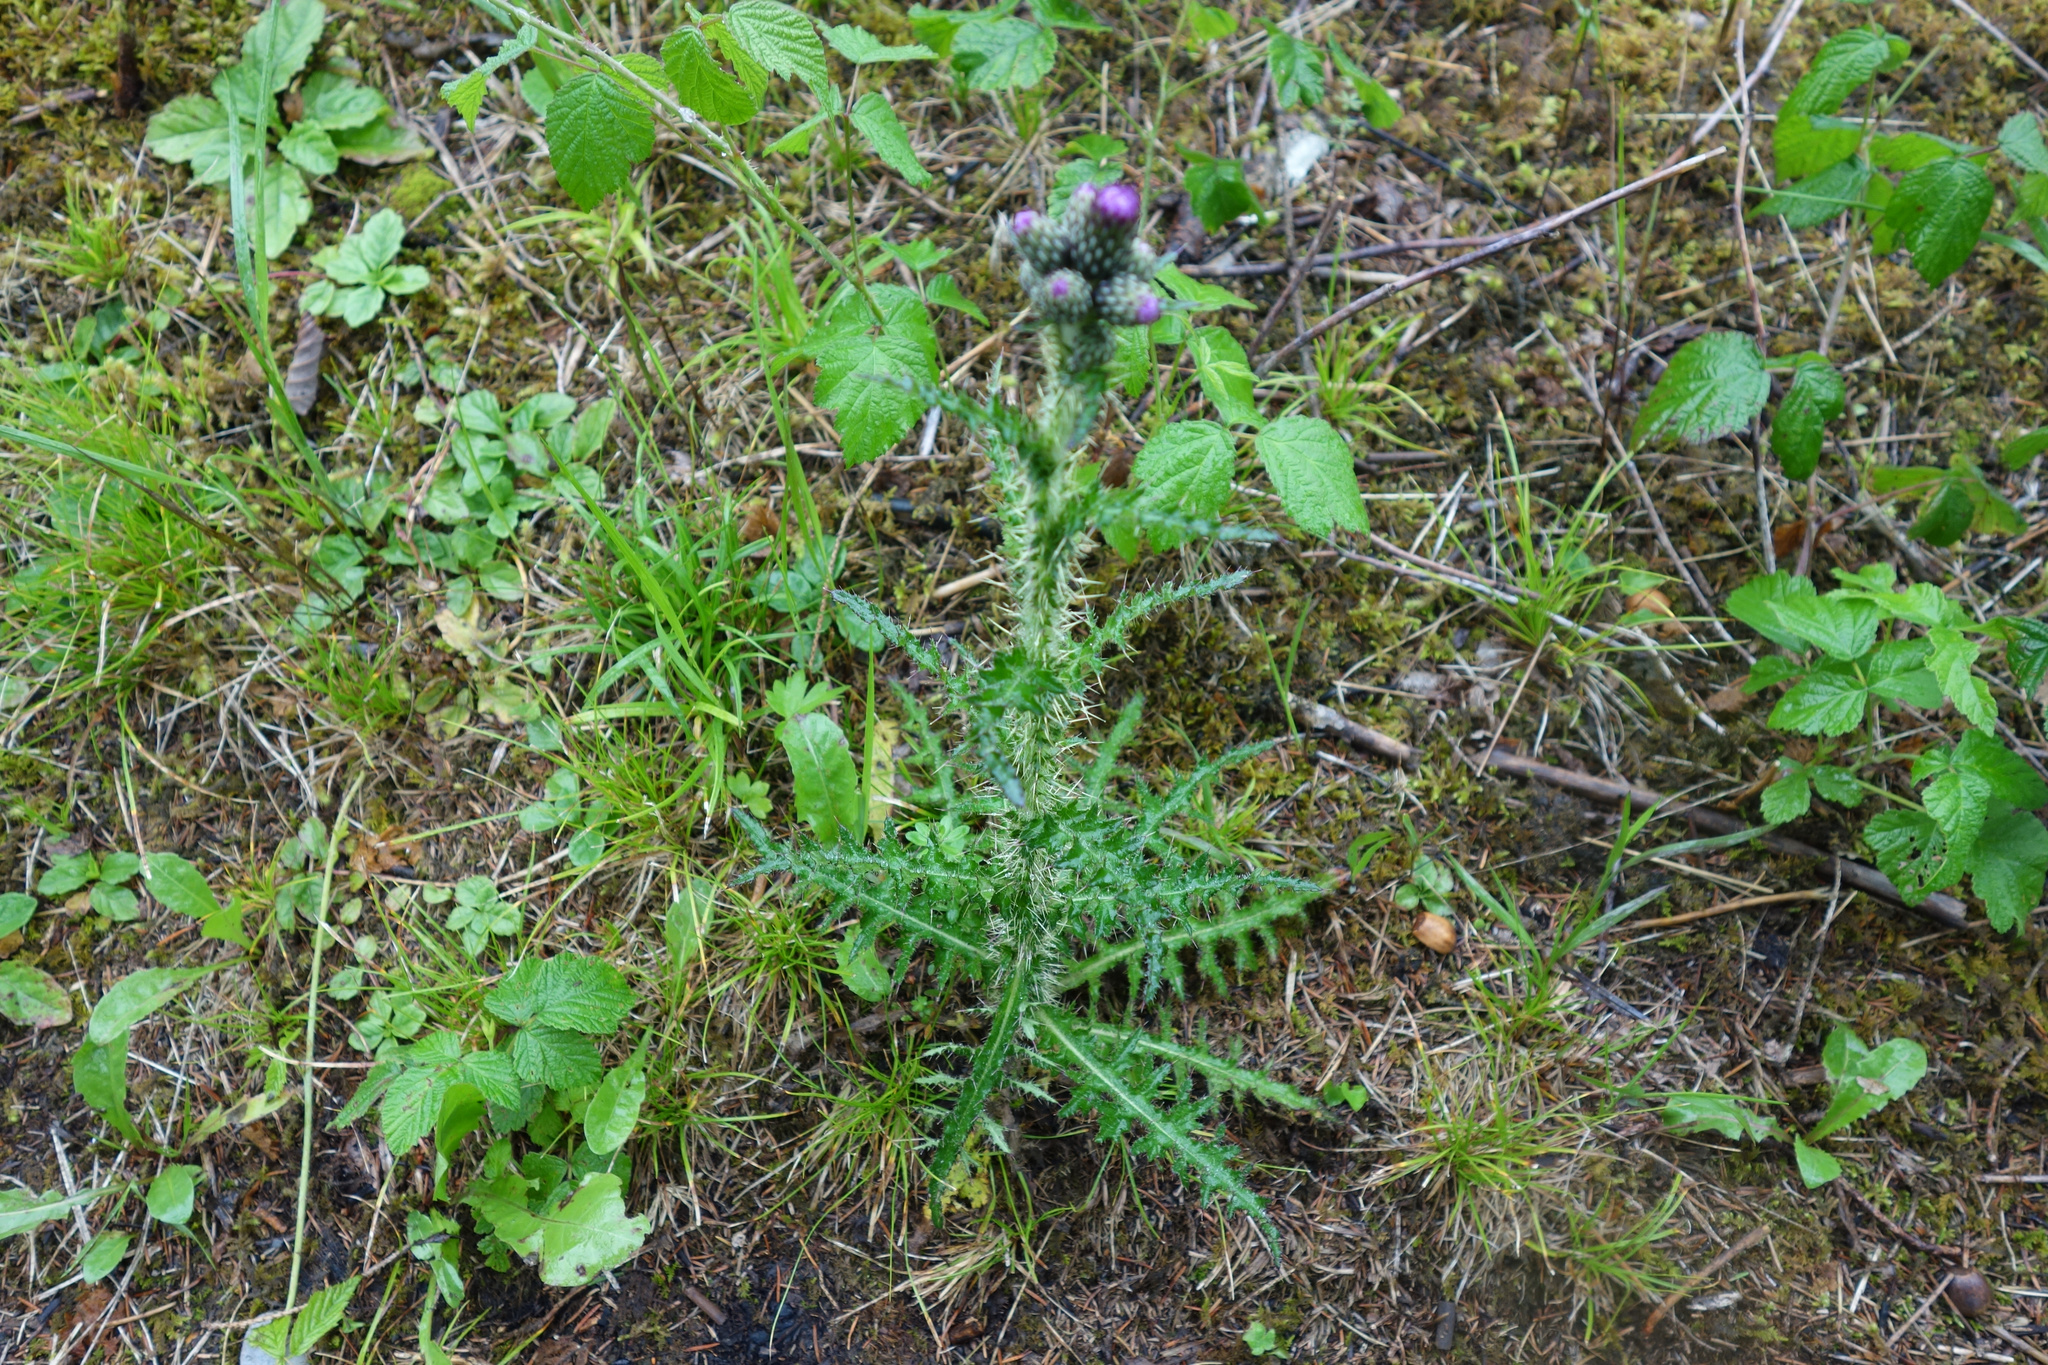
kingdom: Plantae
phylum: Tracheophyta
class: Magnoliopsida
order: Asterales
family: Asteraceae
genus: Cirsium
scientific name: Cirsium palustre
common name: Marsh thistle
